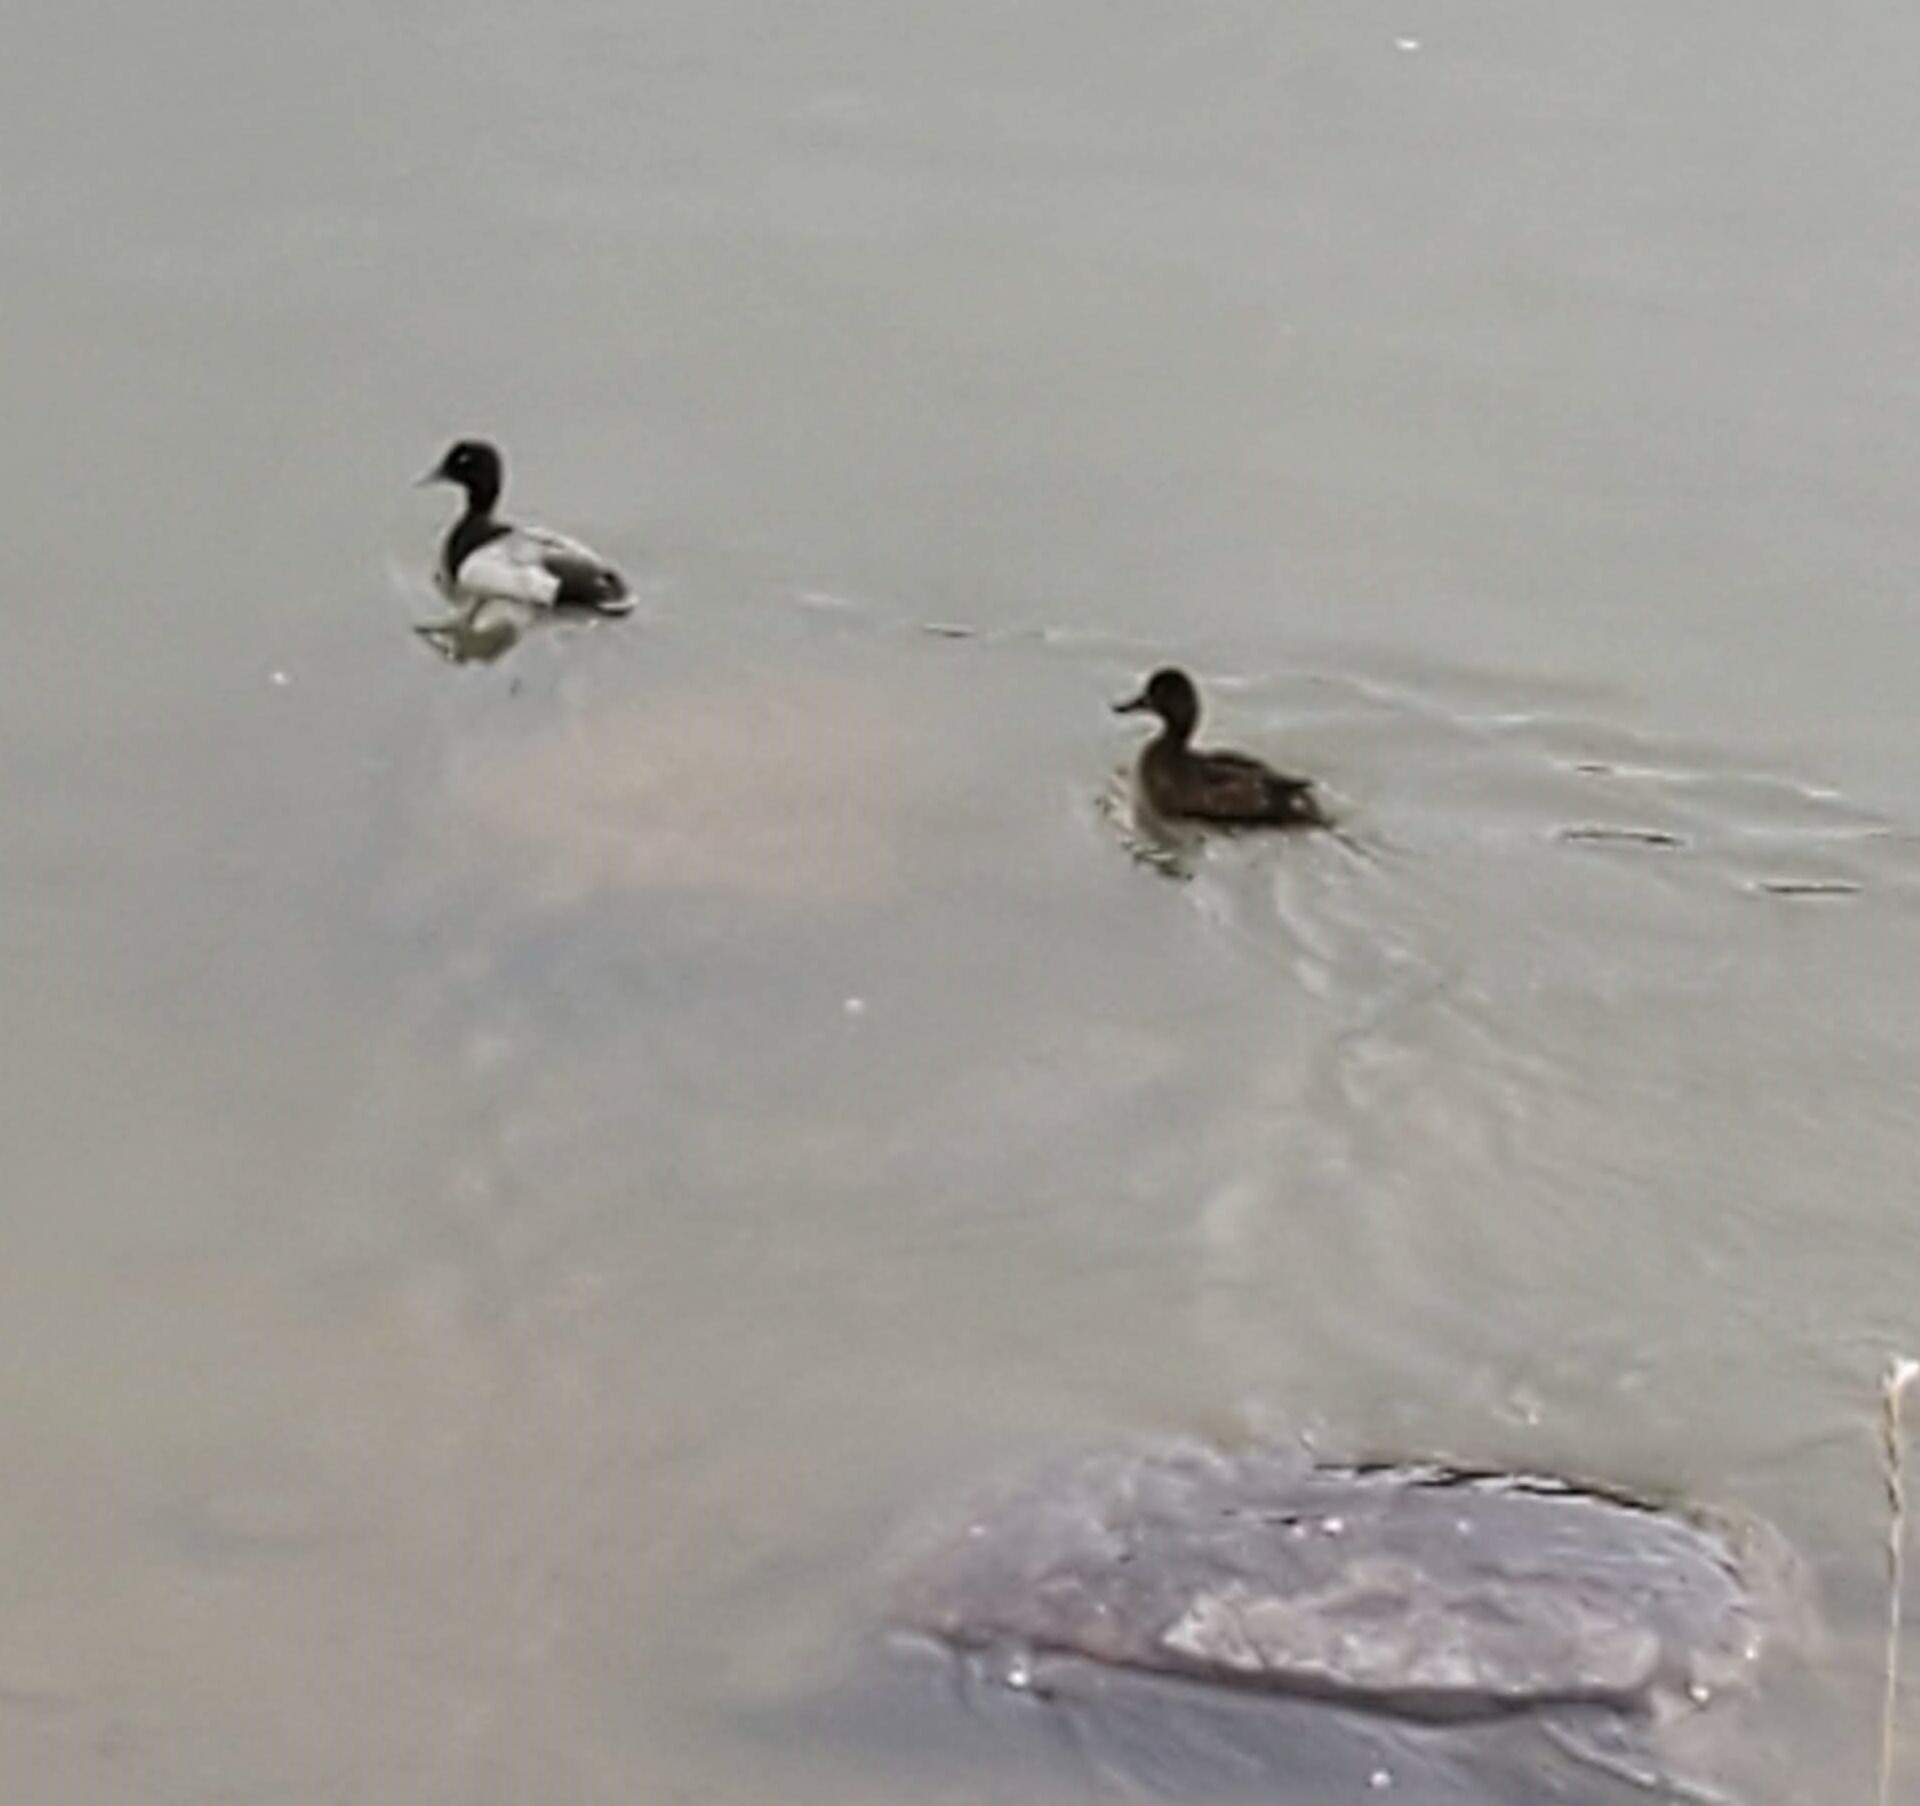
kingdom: Animalia
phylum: Chordata
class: Aves
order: Anseriformes
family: Anatidae
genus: Aythya
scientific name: Aythya affinis
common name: Lesser scaup
